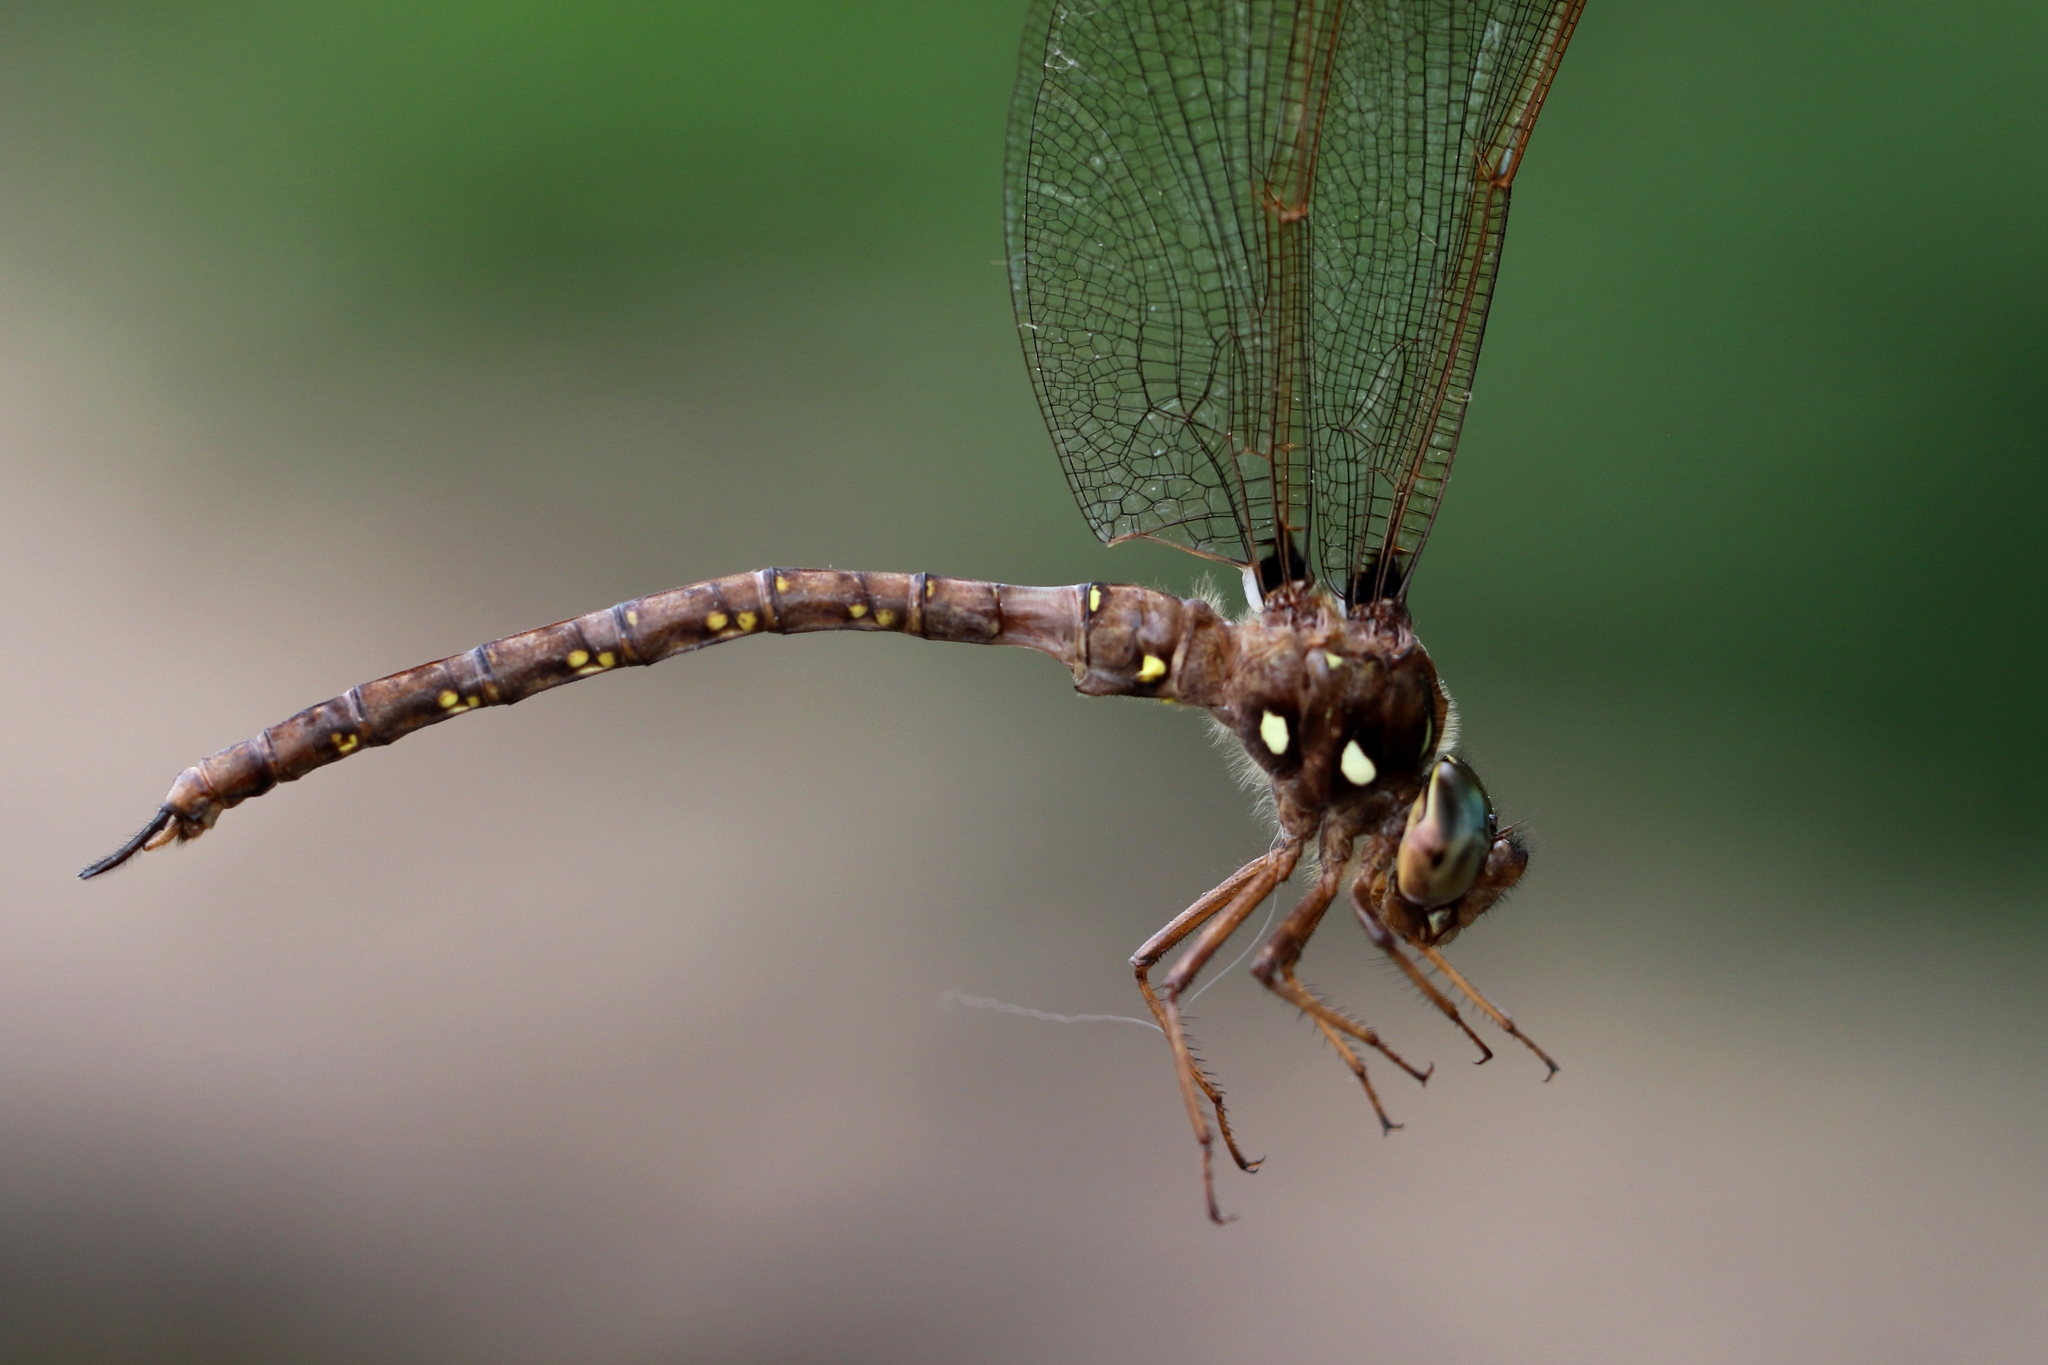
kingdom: Animalia
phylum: Arthropoda
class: Insecta
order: Odonata
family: Aeshnidae
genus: Boyeria
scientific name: Boyeria vinosa
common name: Fawn darner
